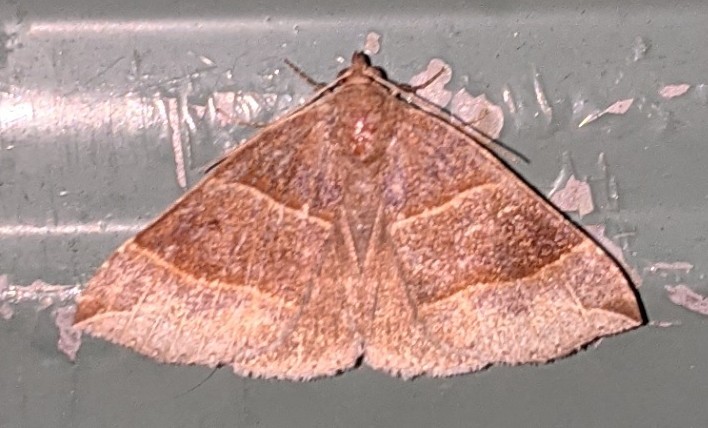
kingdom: Animalia
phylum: Arthropoda
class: Insecta
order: Lepidoptera
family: Erebidae
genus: Parallelia
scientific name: Parallelia bistriaris
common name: Maple looper moth
